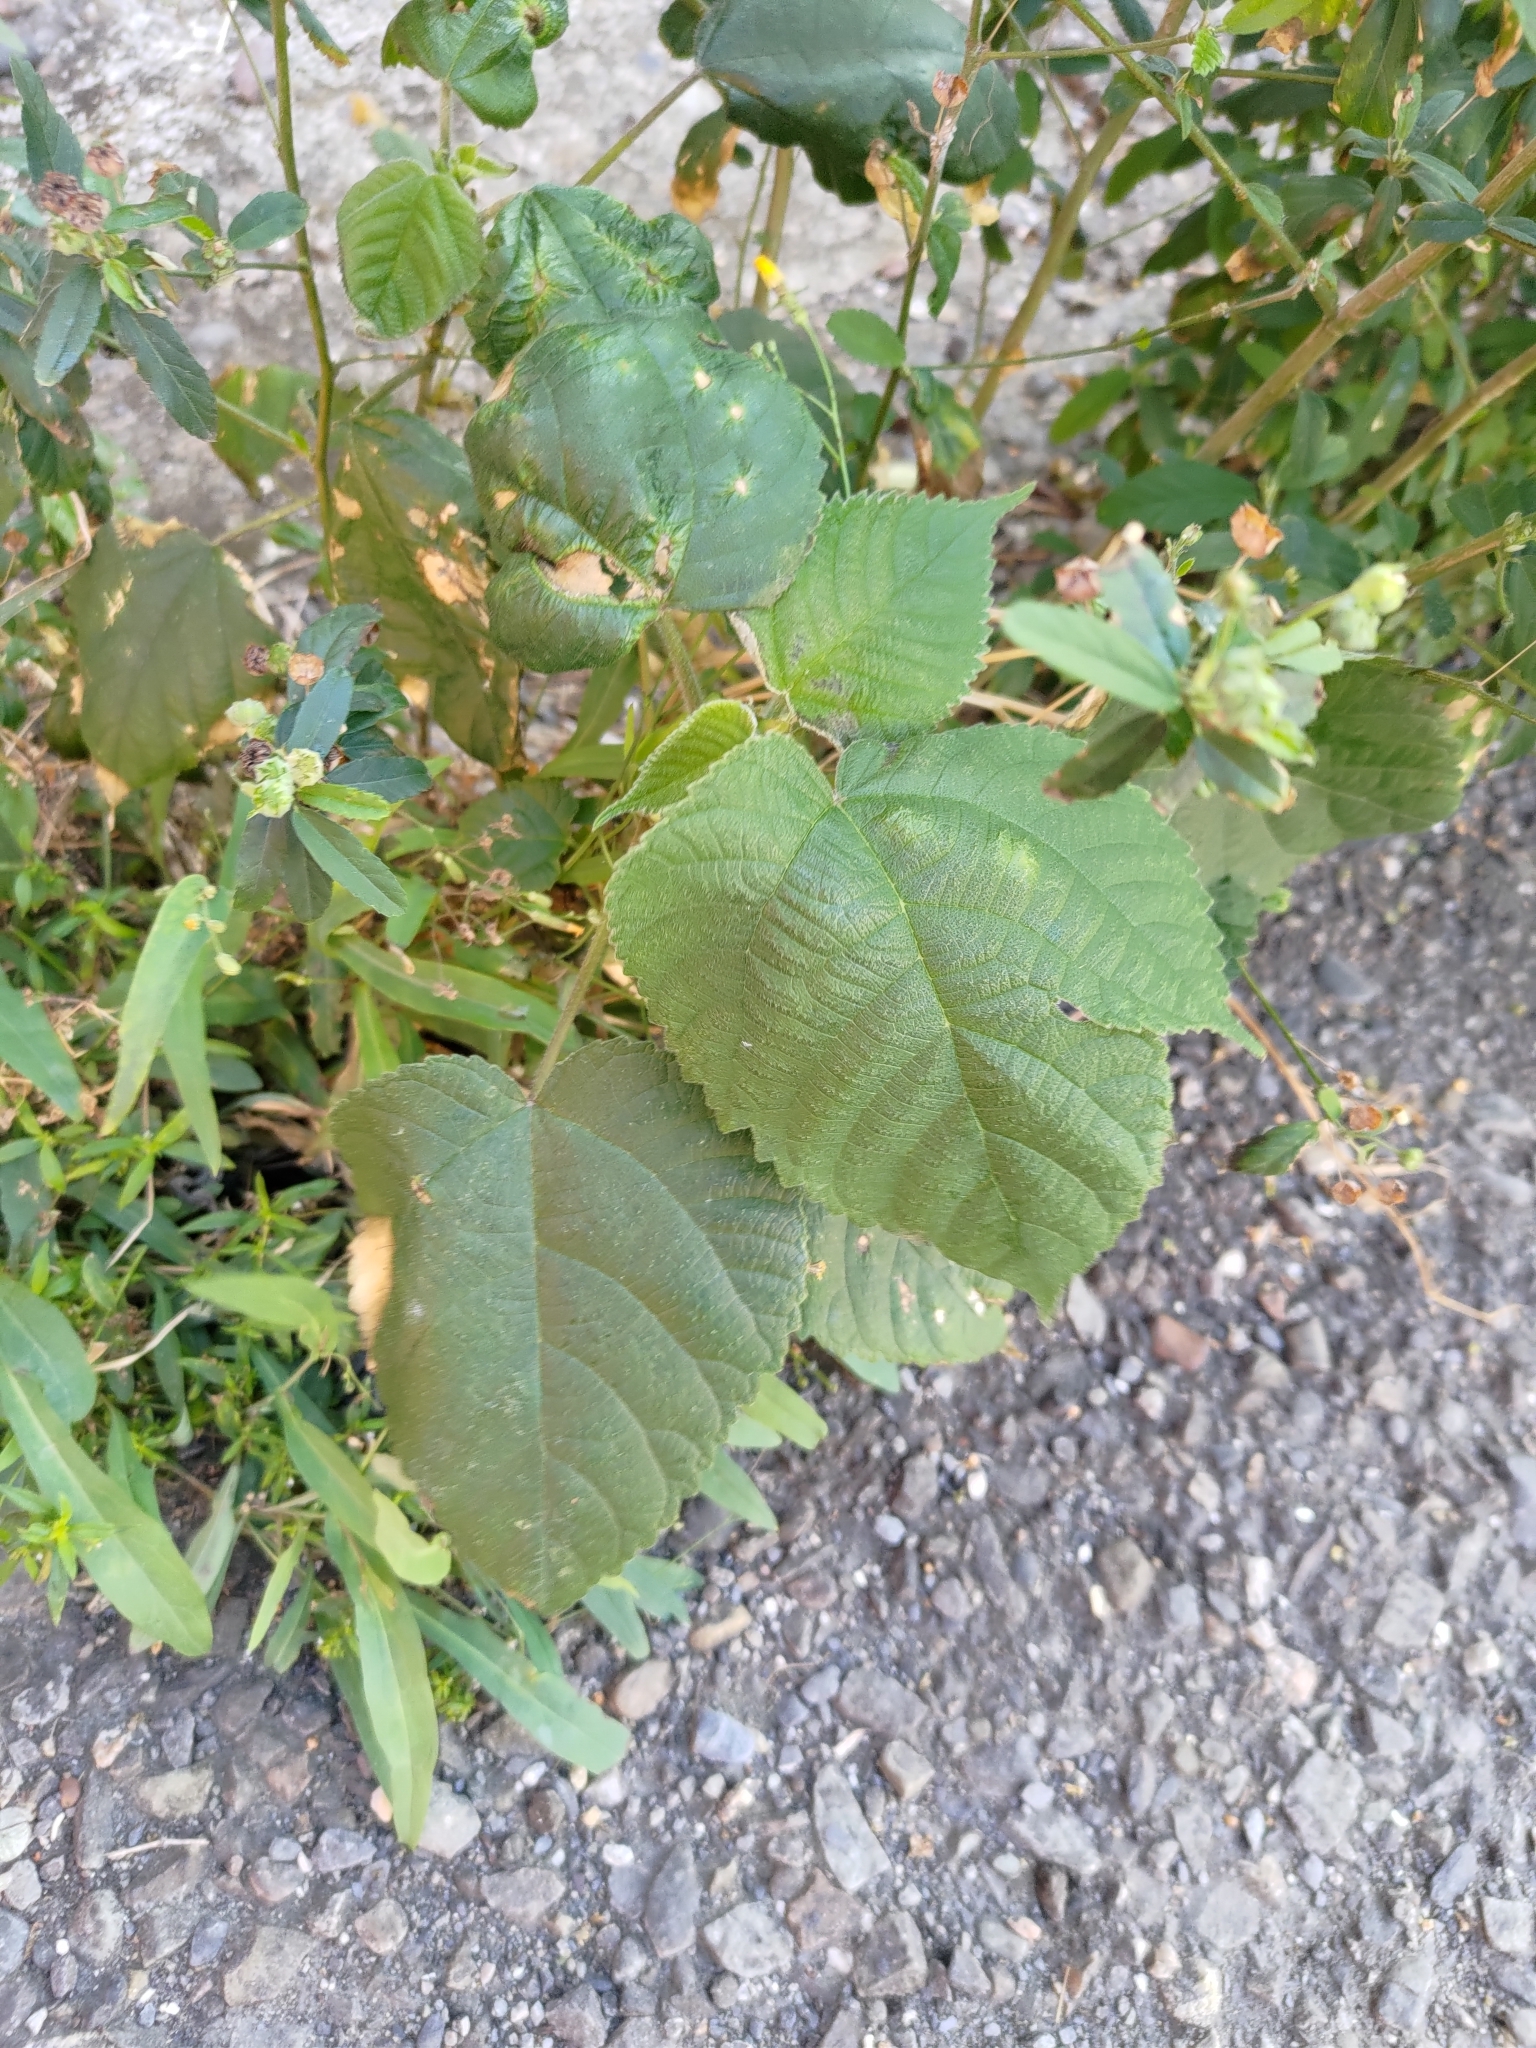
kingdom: Plantae
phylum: Tracheophyta
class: Magnoliopsida
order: Rosales
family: Moraceae
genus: Broussonetia
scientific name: Broussonetia papyrifera
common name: Paper mulberry
